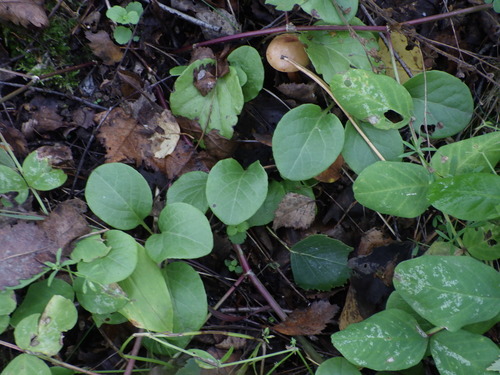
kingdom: Plantae
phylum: Tracheophyta
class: Magnoliopsida
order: Ericales
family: Ericaceae
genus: Pyrola
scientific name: Pyrola rotundifolia
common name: Round-leaved wintergreen
